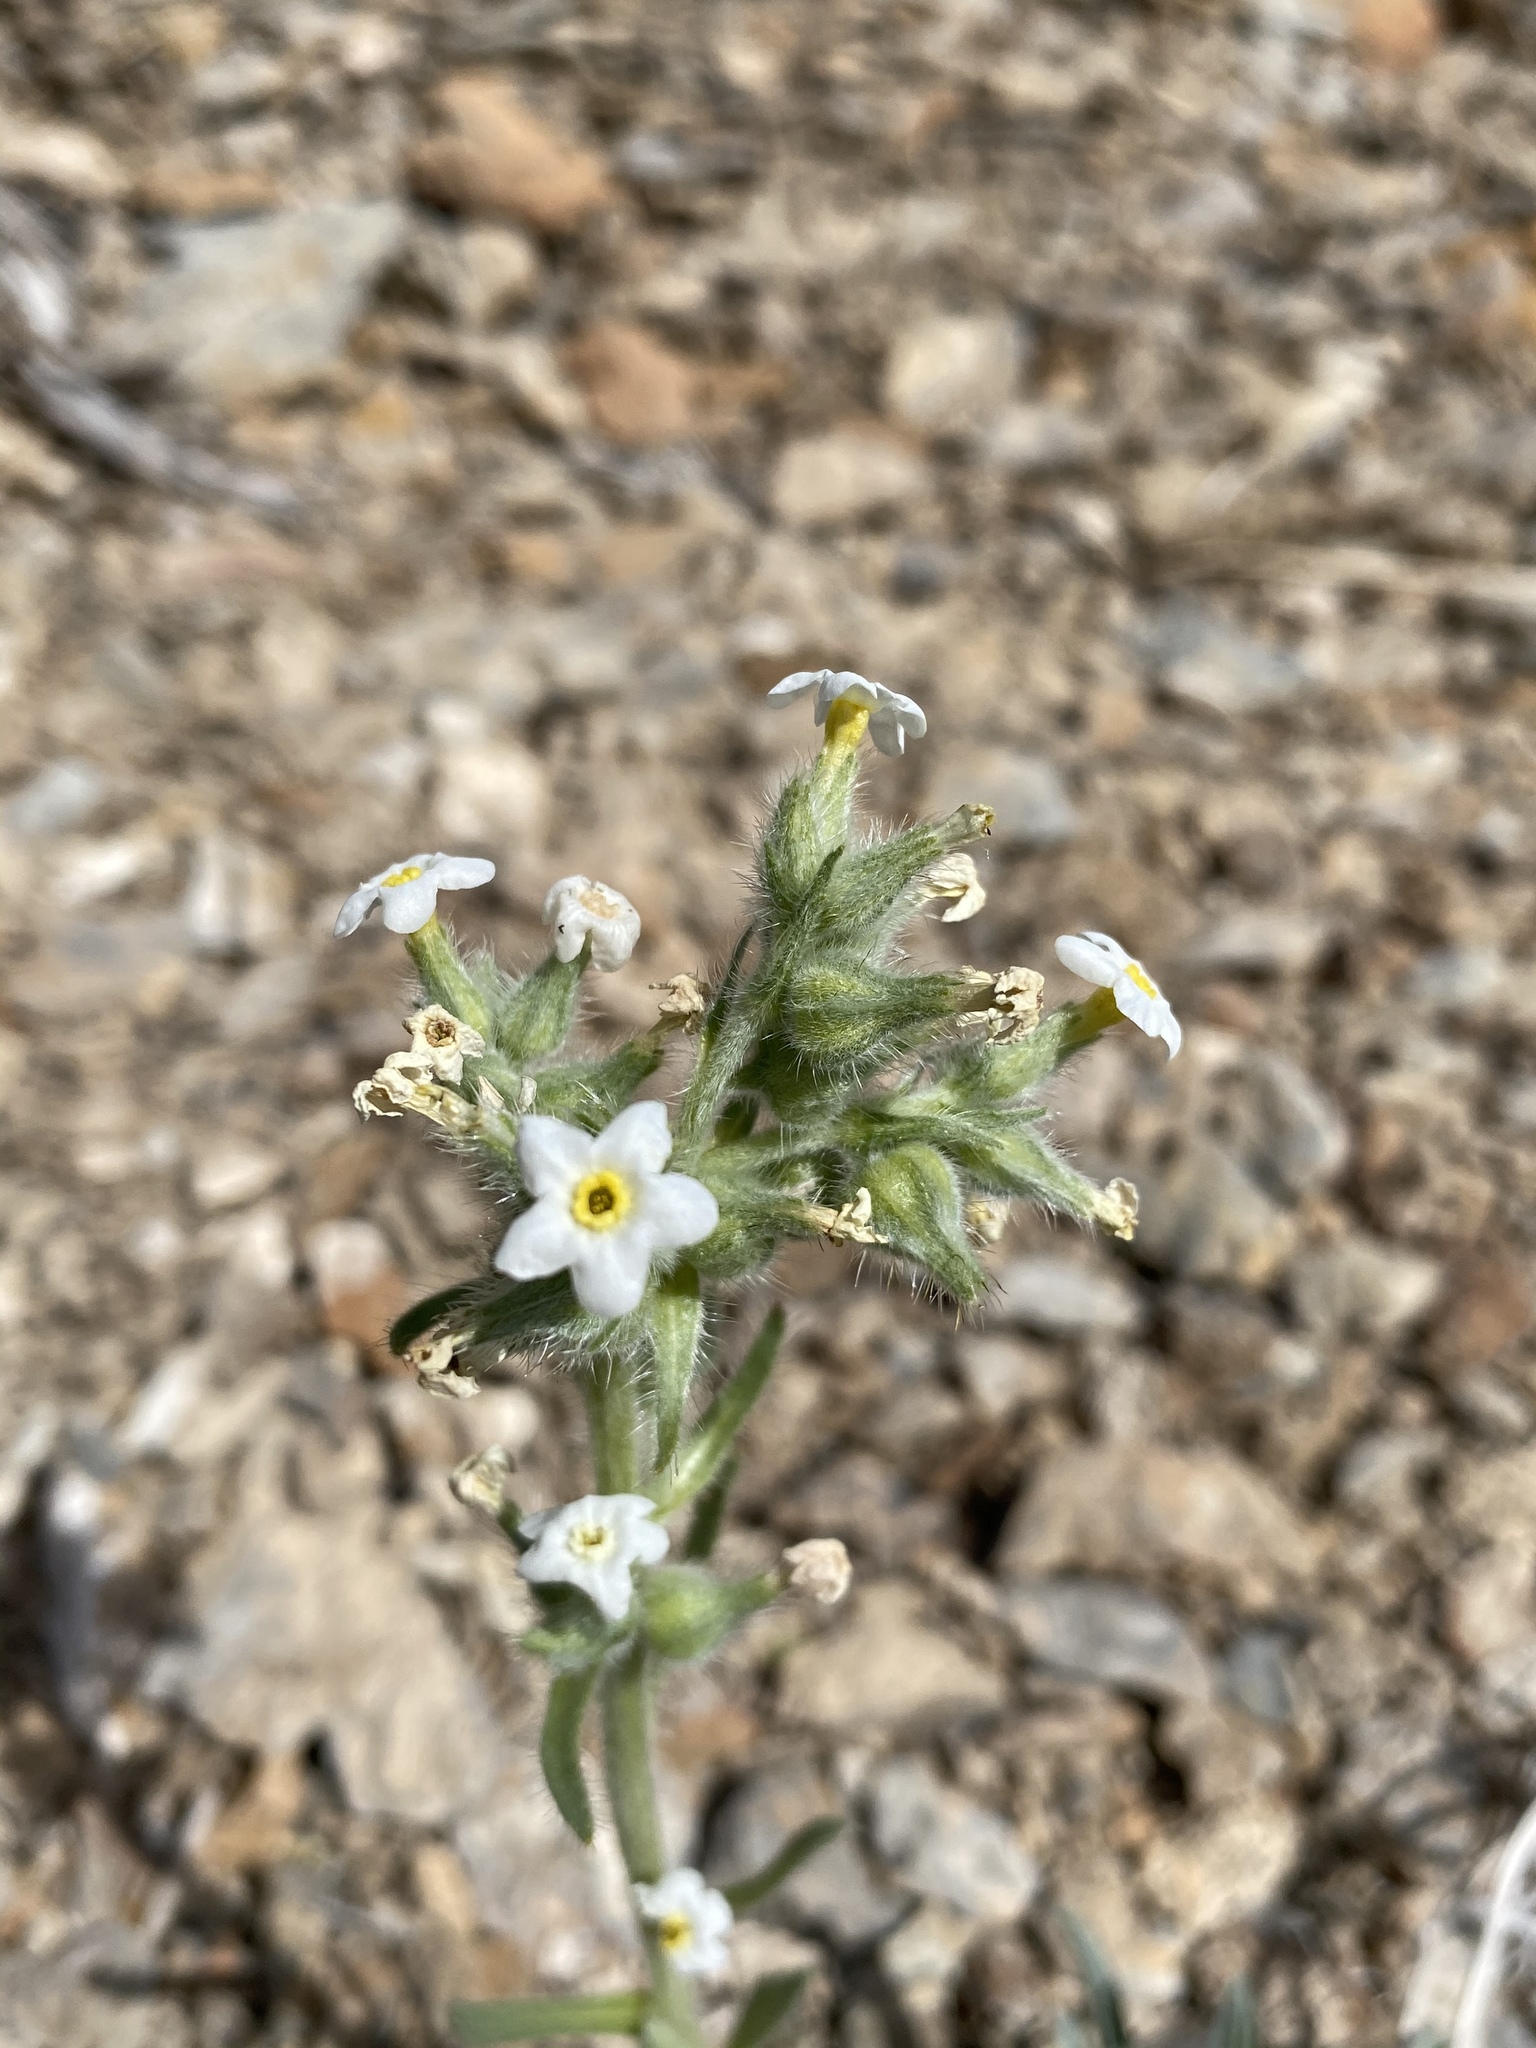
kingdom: Plantae
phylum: Tracheophyta
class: Magnoliopsida
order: Boraginales
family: Boraginaceae
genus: Oreocarya
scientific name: Oreocarya flavoculata
